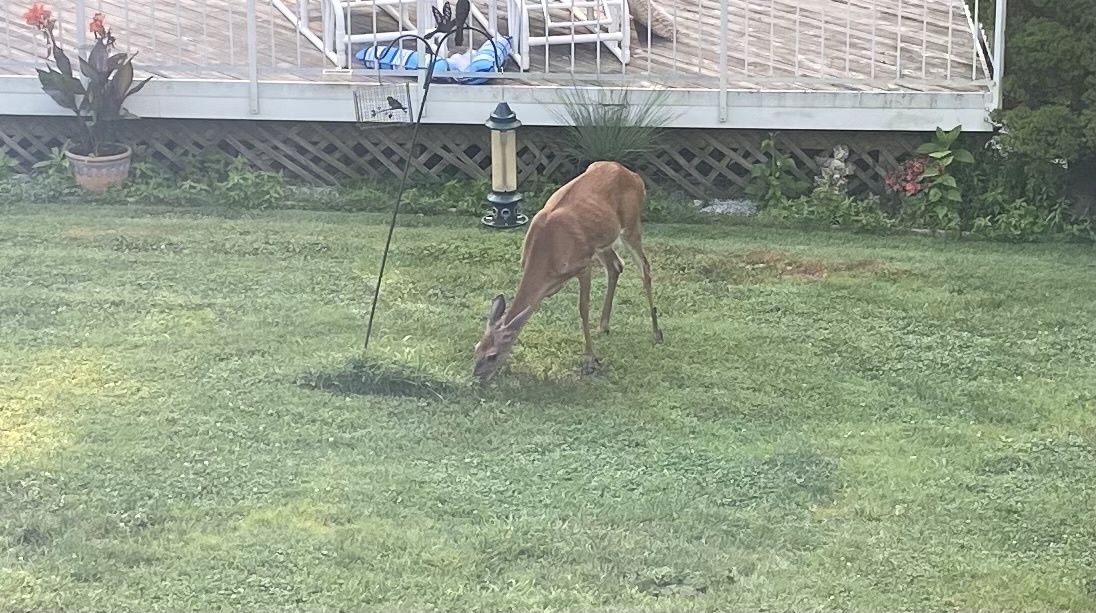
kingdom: Animalia
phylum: Chordata
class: Mammalia
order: Artiodactyla
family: Cervidae
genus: Odocoileus
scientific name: Odocoileus virginianus
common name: White-tailed deer
